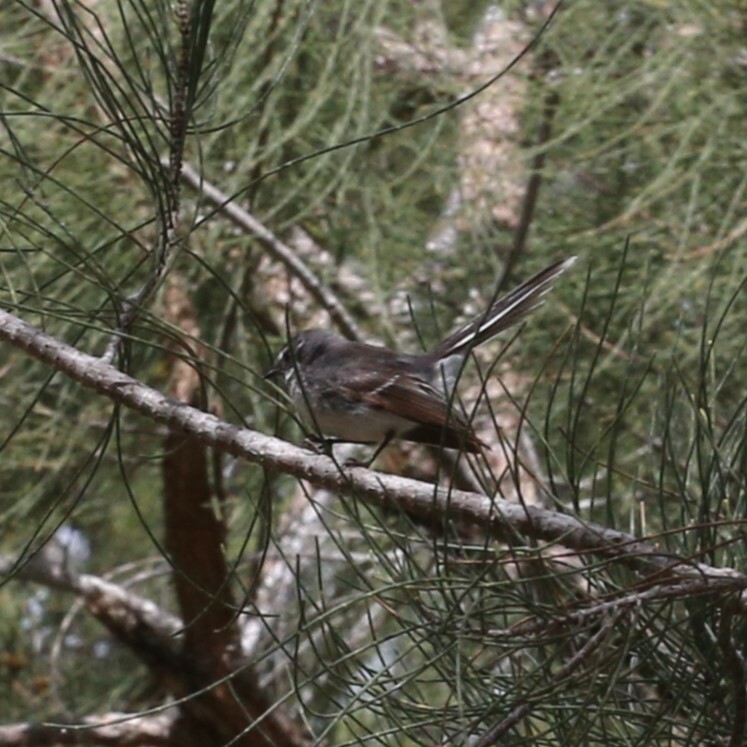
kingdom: Animalia
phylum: Chordata
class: Aves
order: Passeriformes
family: Rhipiduridae
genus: Rhipidura
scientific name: Rhipidura albiscapa
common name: Grey fantail
